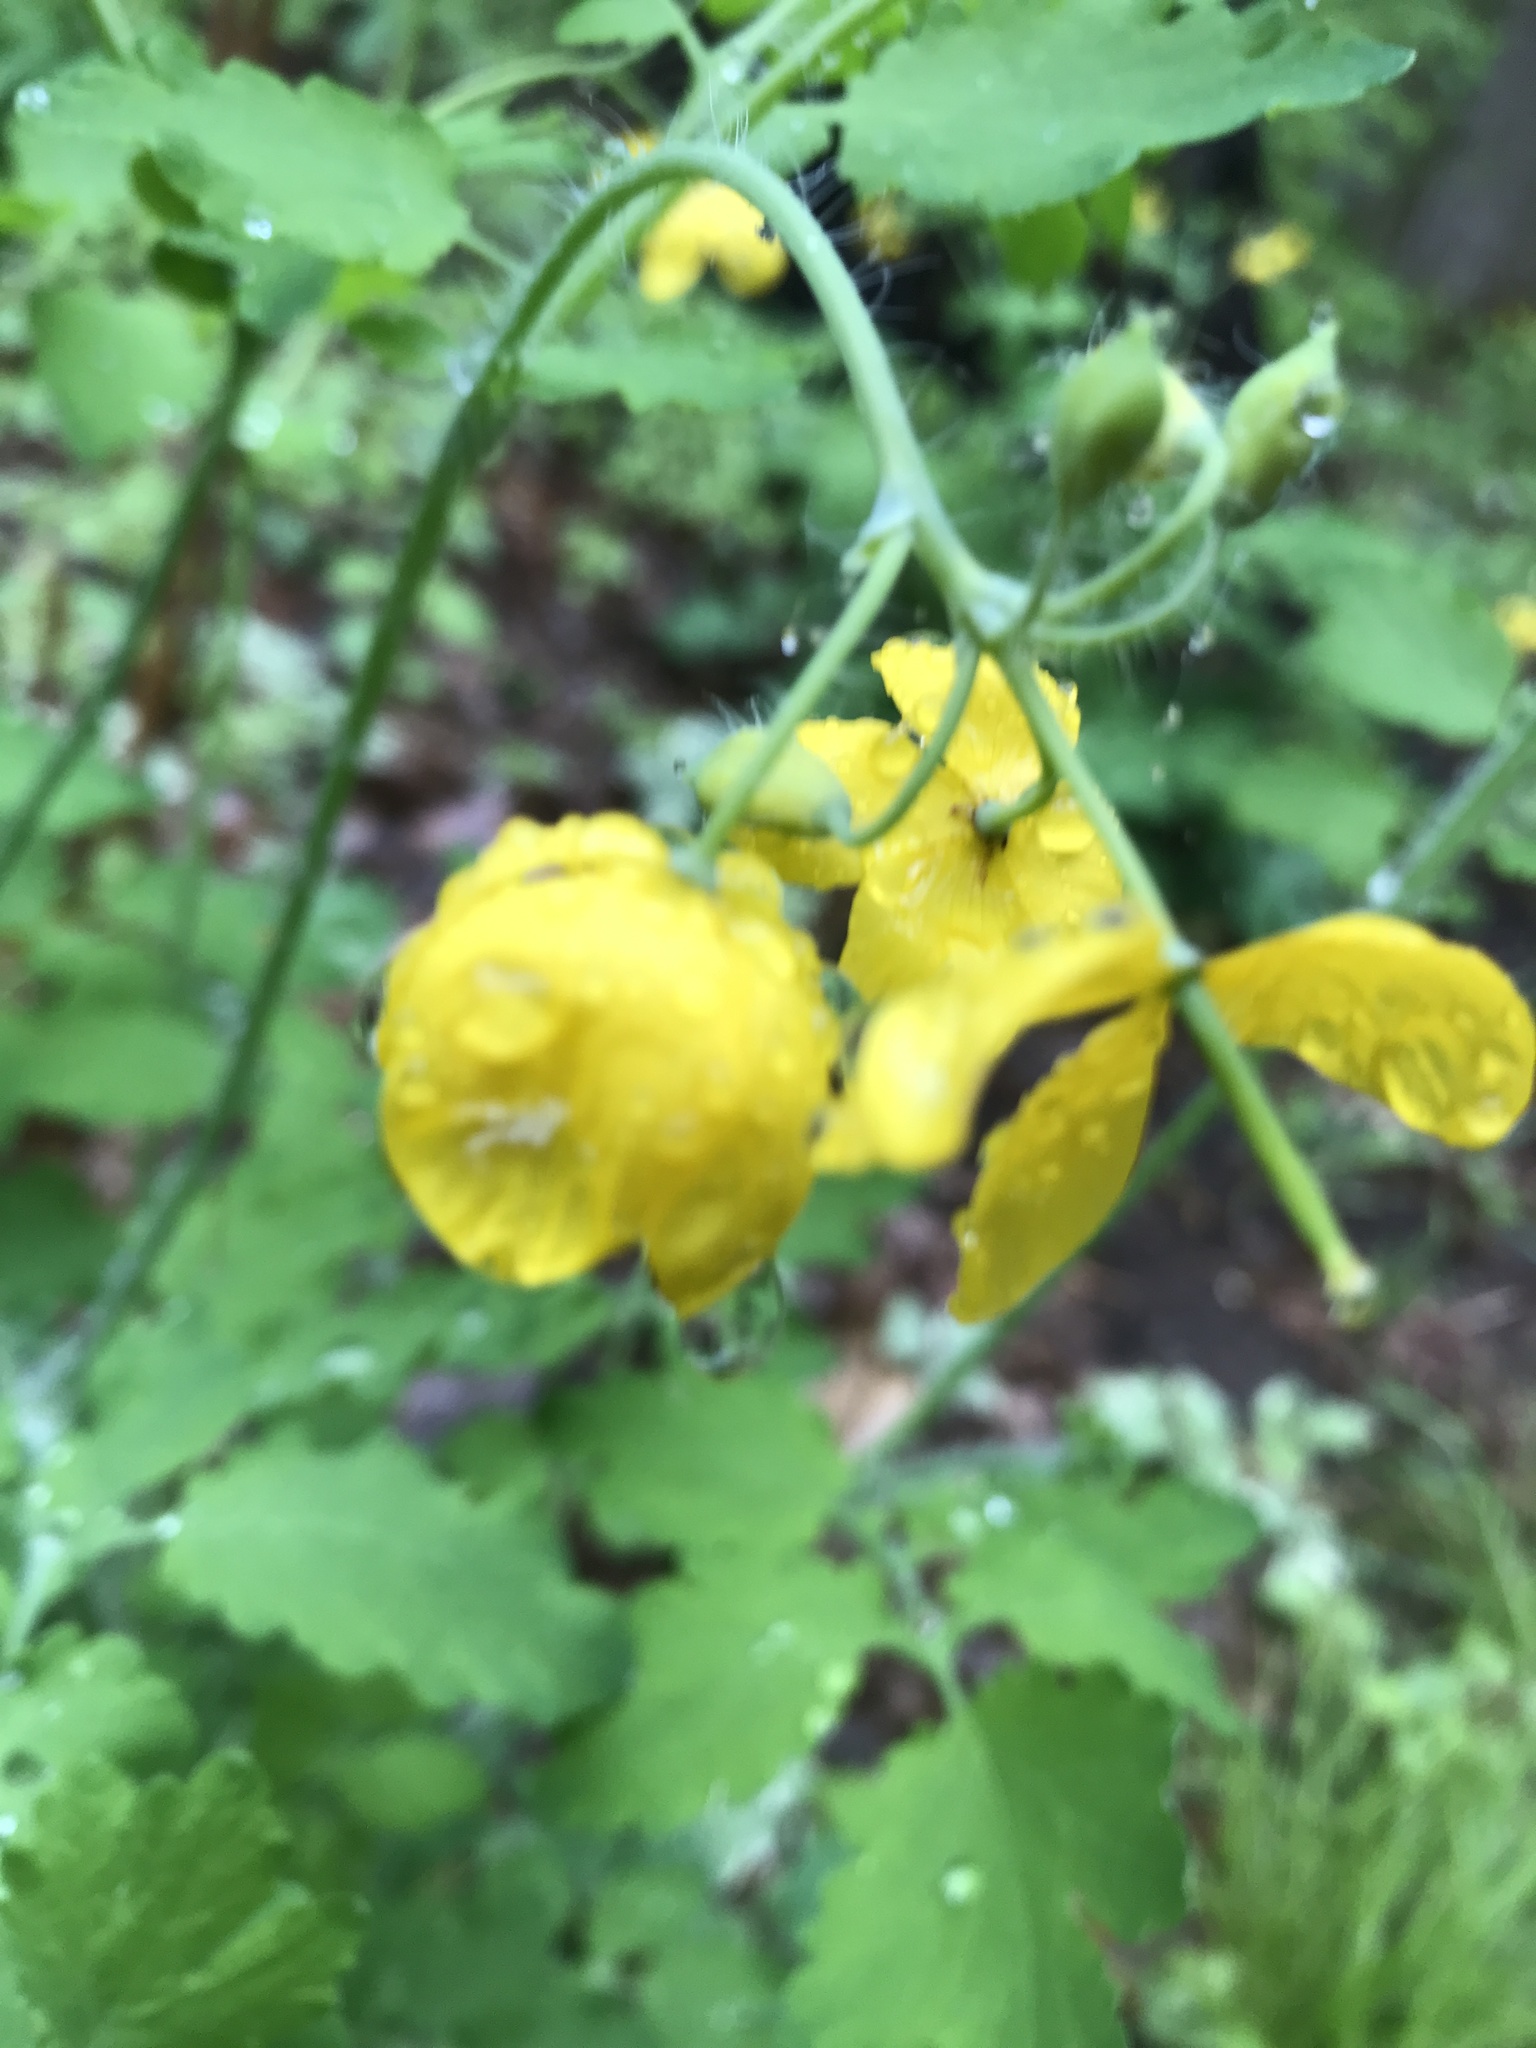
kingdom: Plantae
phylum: Tracheophyta
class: Magnoliopsida
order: Ranunculales
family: Papaveraceae
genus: Chelidonium
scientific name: Chelidonium majus
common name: Greater celandine
